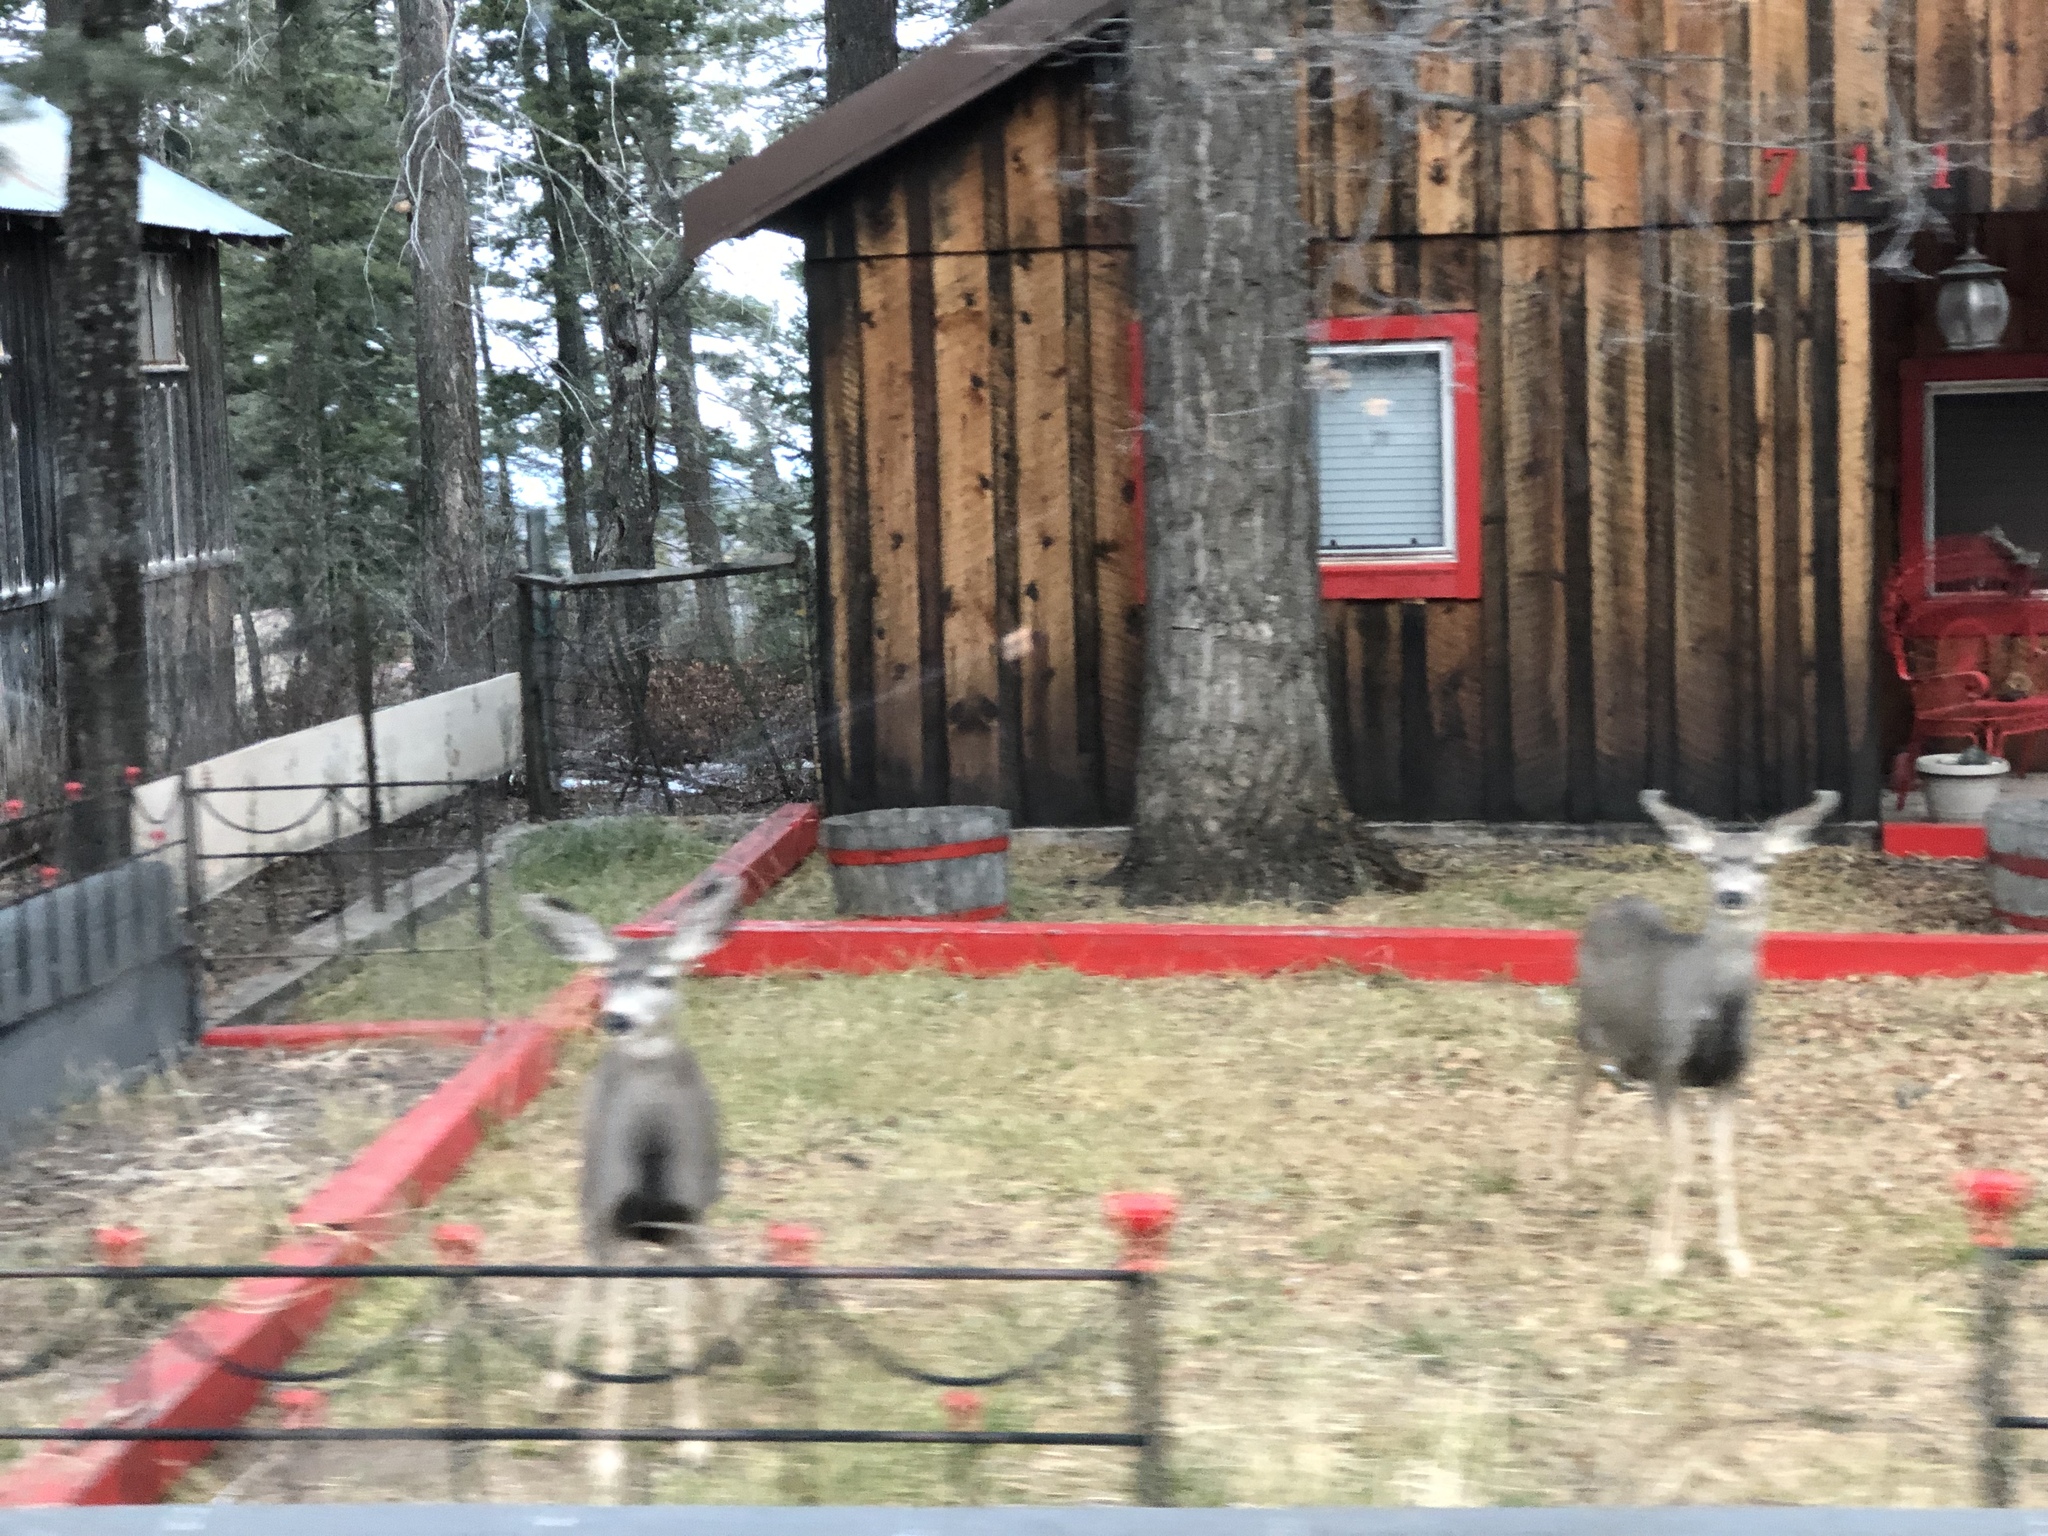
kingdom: Animalia
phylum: Chordata
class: Mammalia
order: Artiodactyla
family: Cervidae
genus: Odocoileus
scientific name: Odocoileus hemionus
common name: Mule deer
